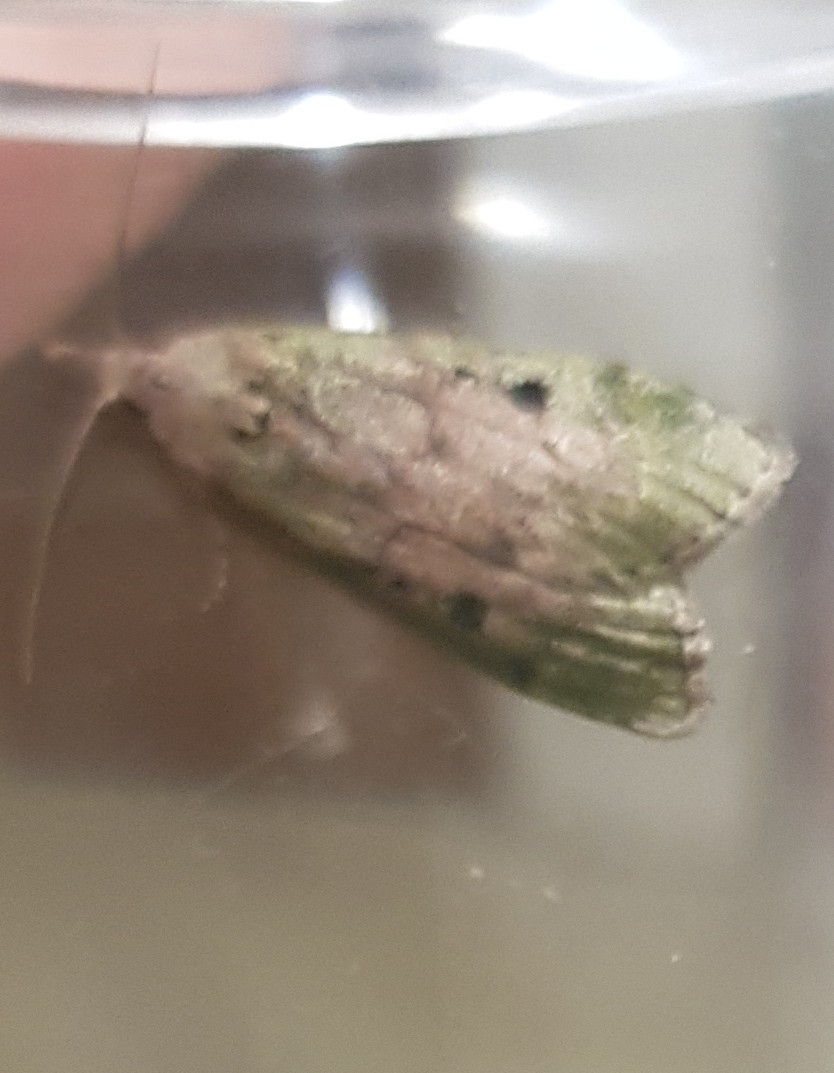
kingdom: Animalia
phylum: Arthropoda
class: Insecta
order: Lepidoptera
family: Pyralidae
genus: Aphomia
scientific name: Aphomia sociella
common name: Bee moth
